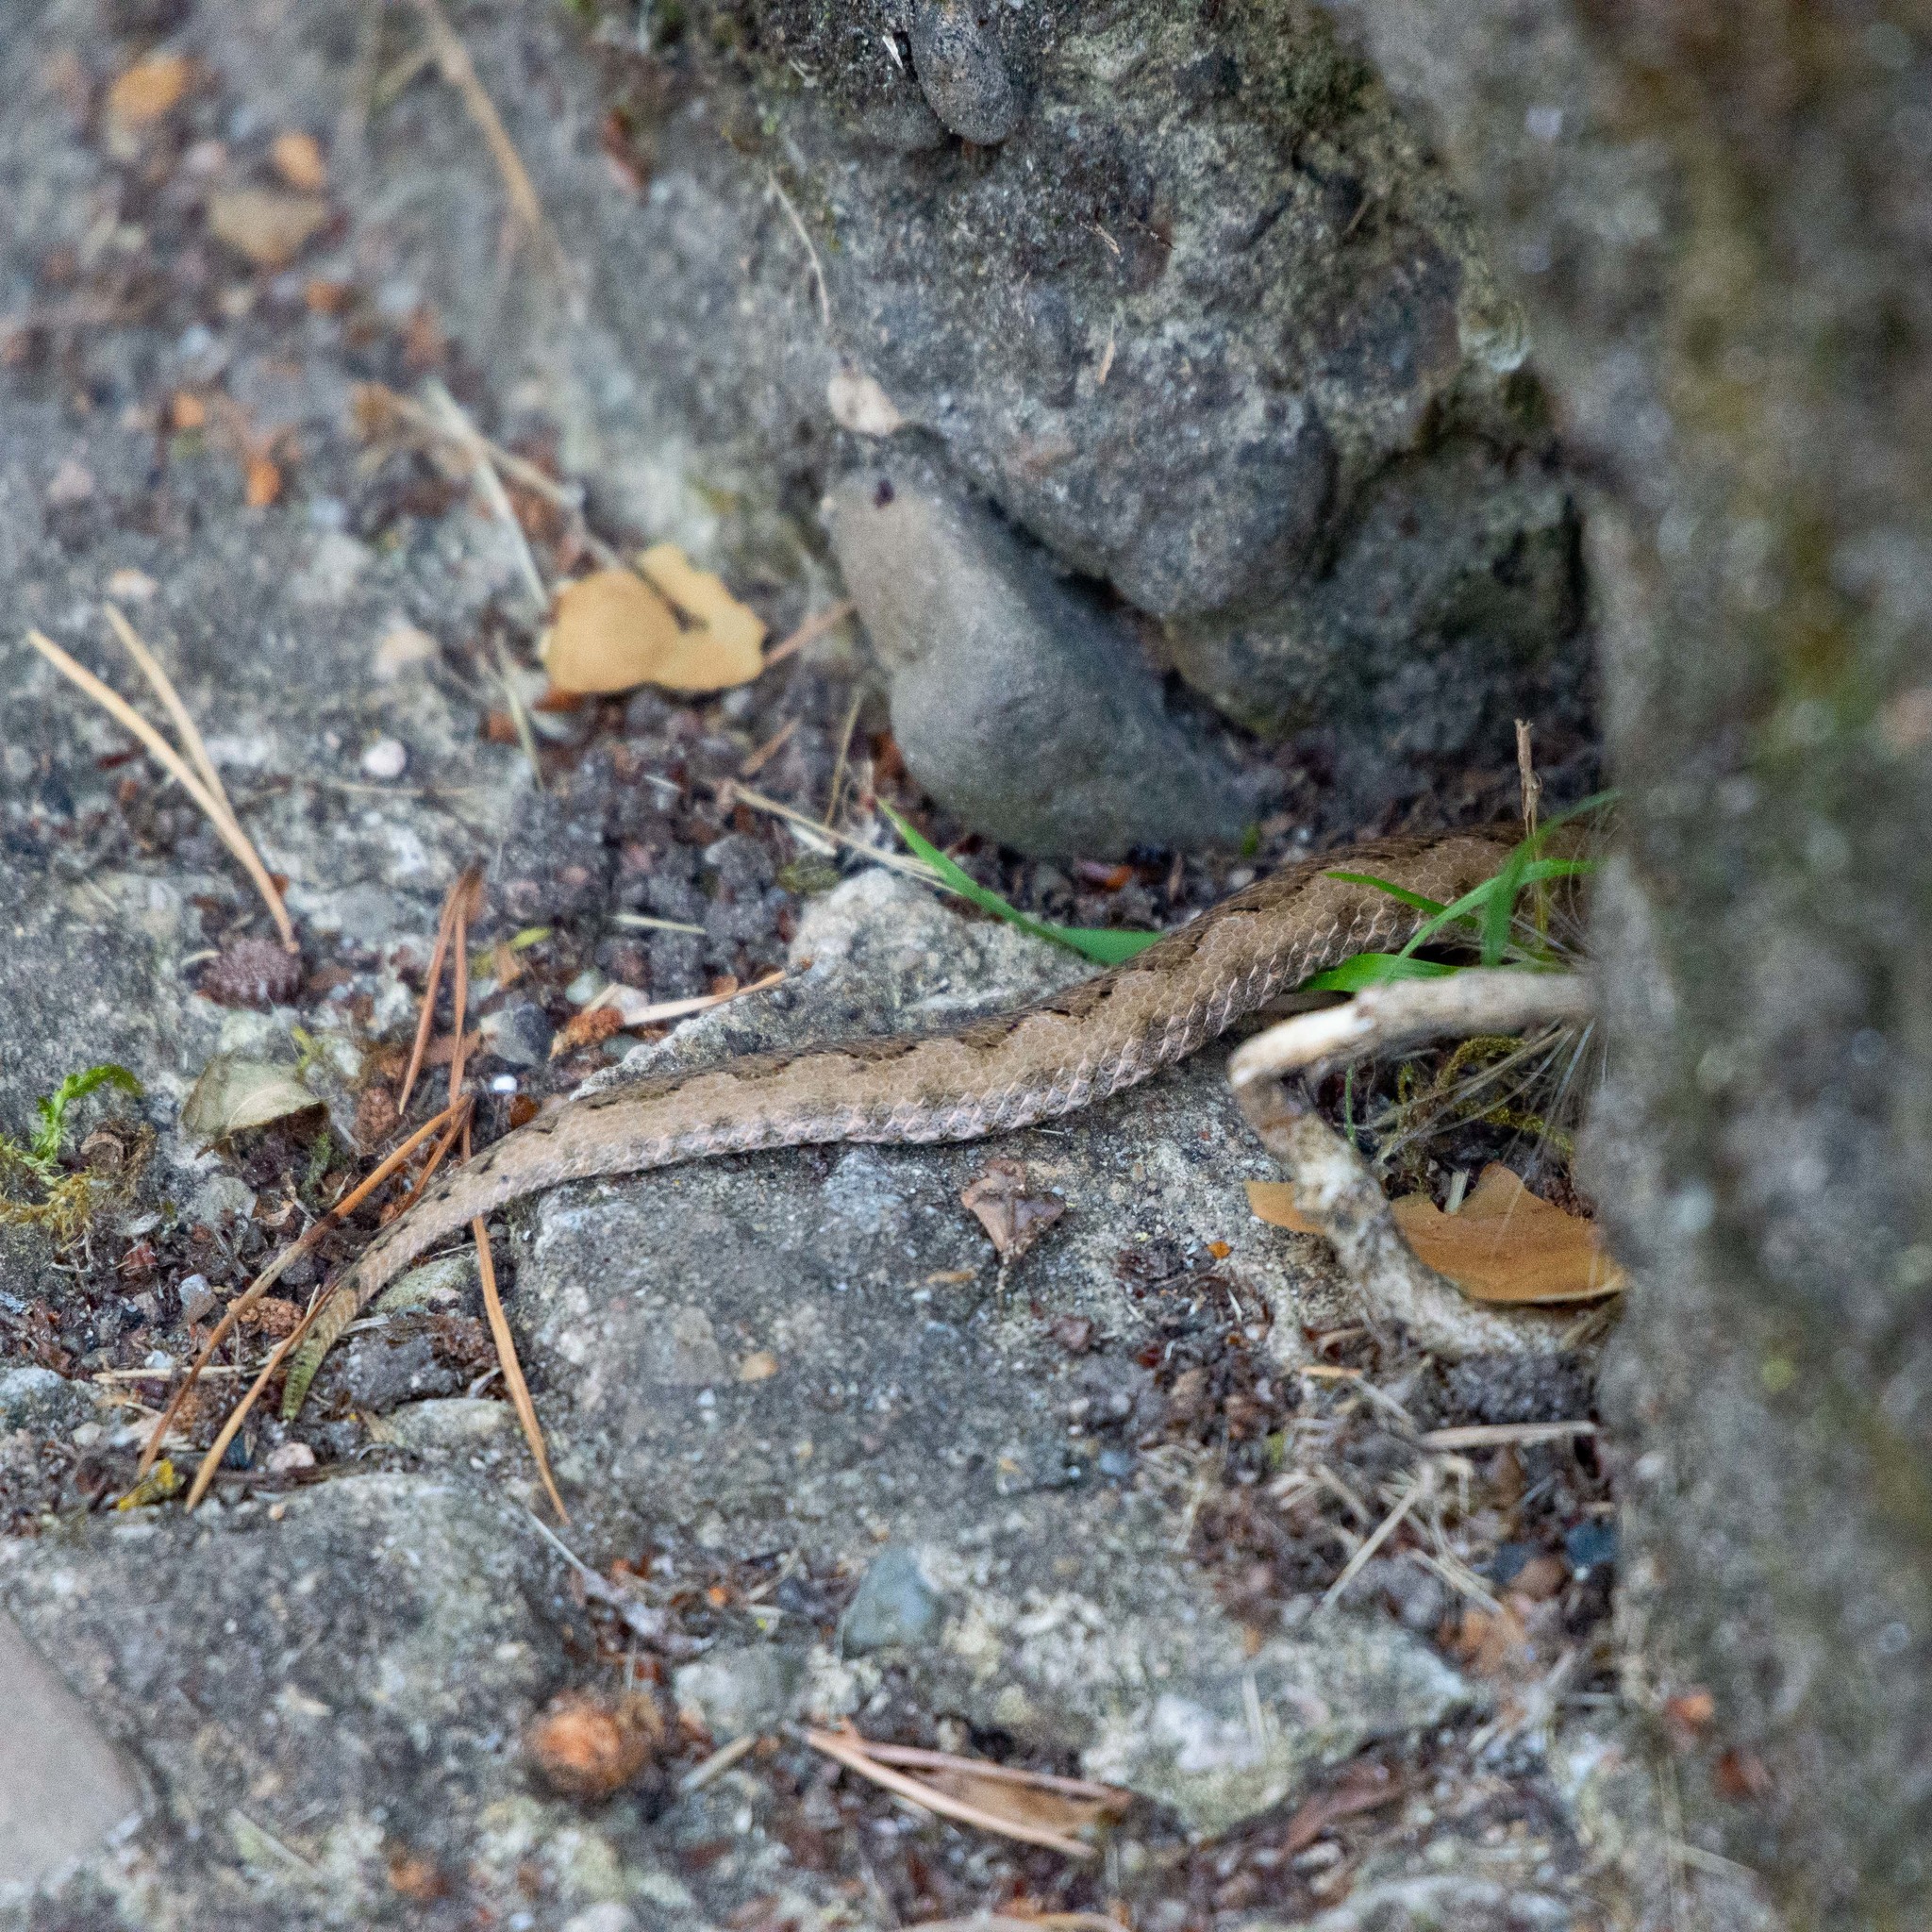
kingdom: Animalia
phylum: Chordata
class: Squamata
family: Viperidae
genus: Vipera
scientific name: Vipera latastei
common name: Lataste's viper
